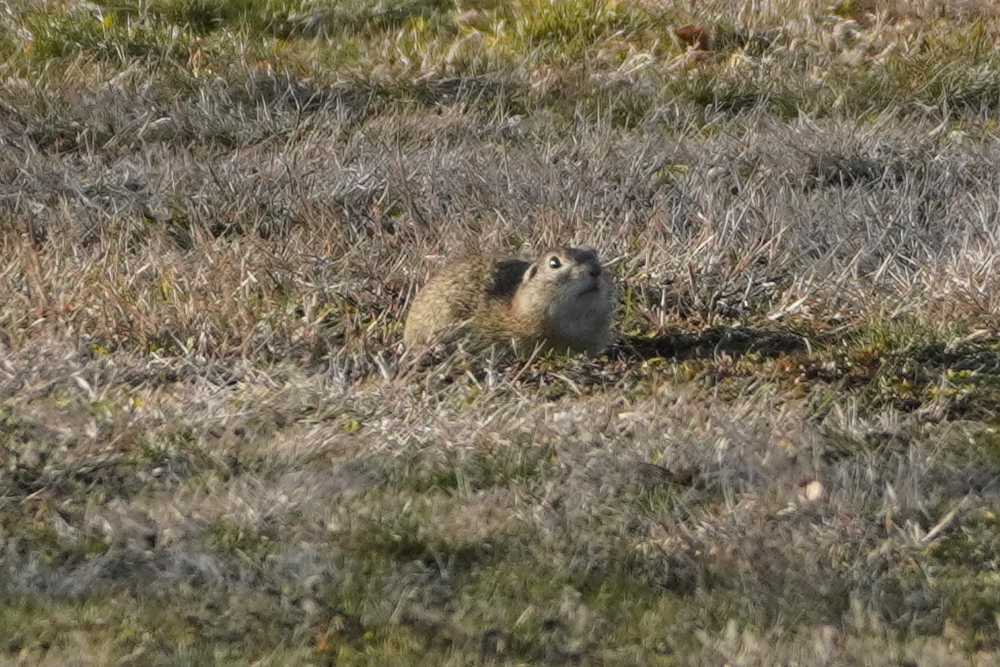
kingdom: Animalia
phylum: Chordata
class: Mammalia
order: Rodentia
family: Sciuridae
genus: Spermophilus
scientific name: Spermophilus citellus
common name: European ground squirrel
